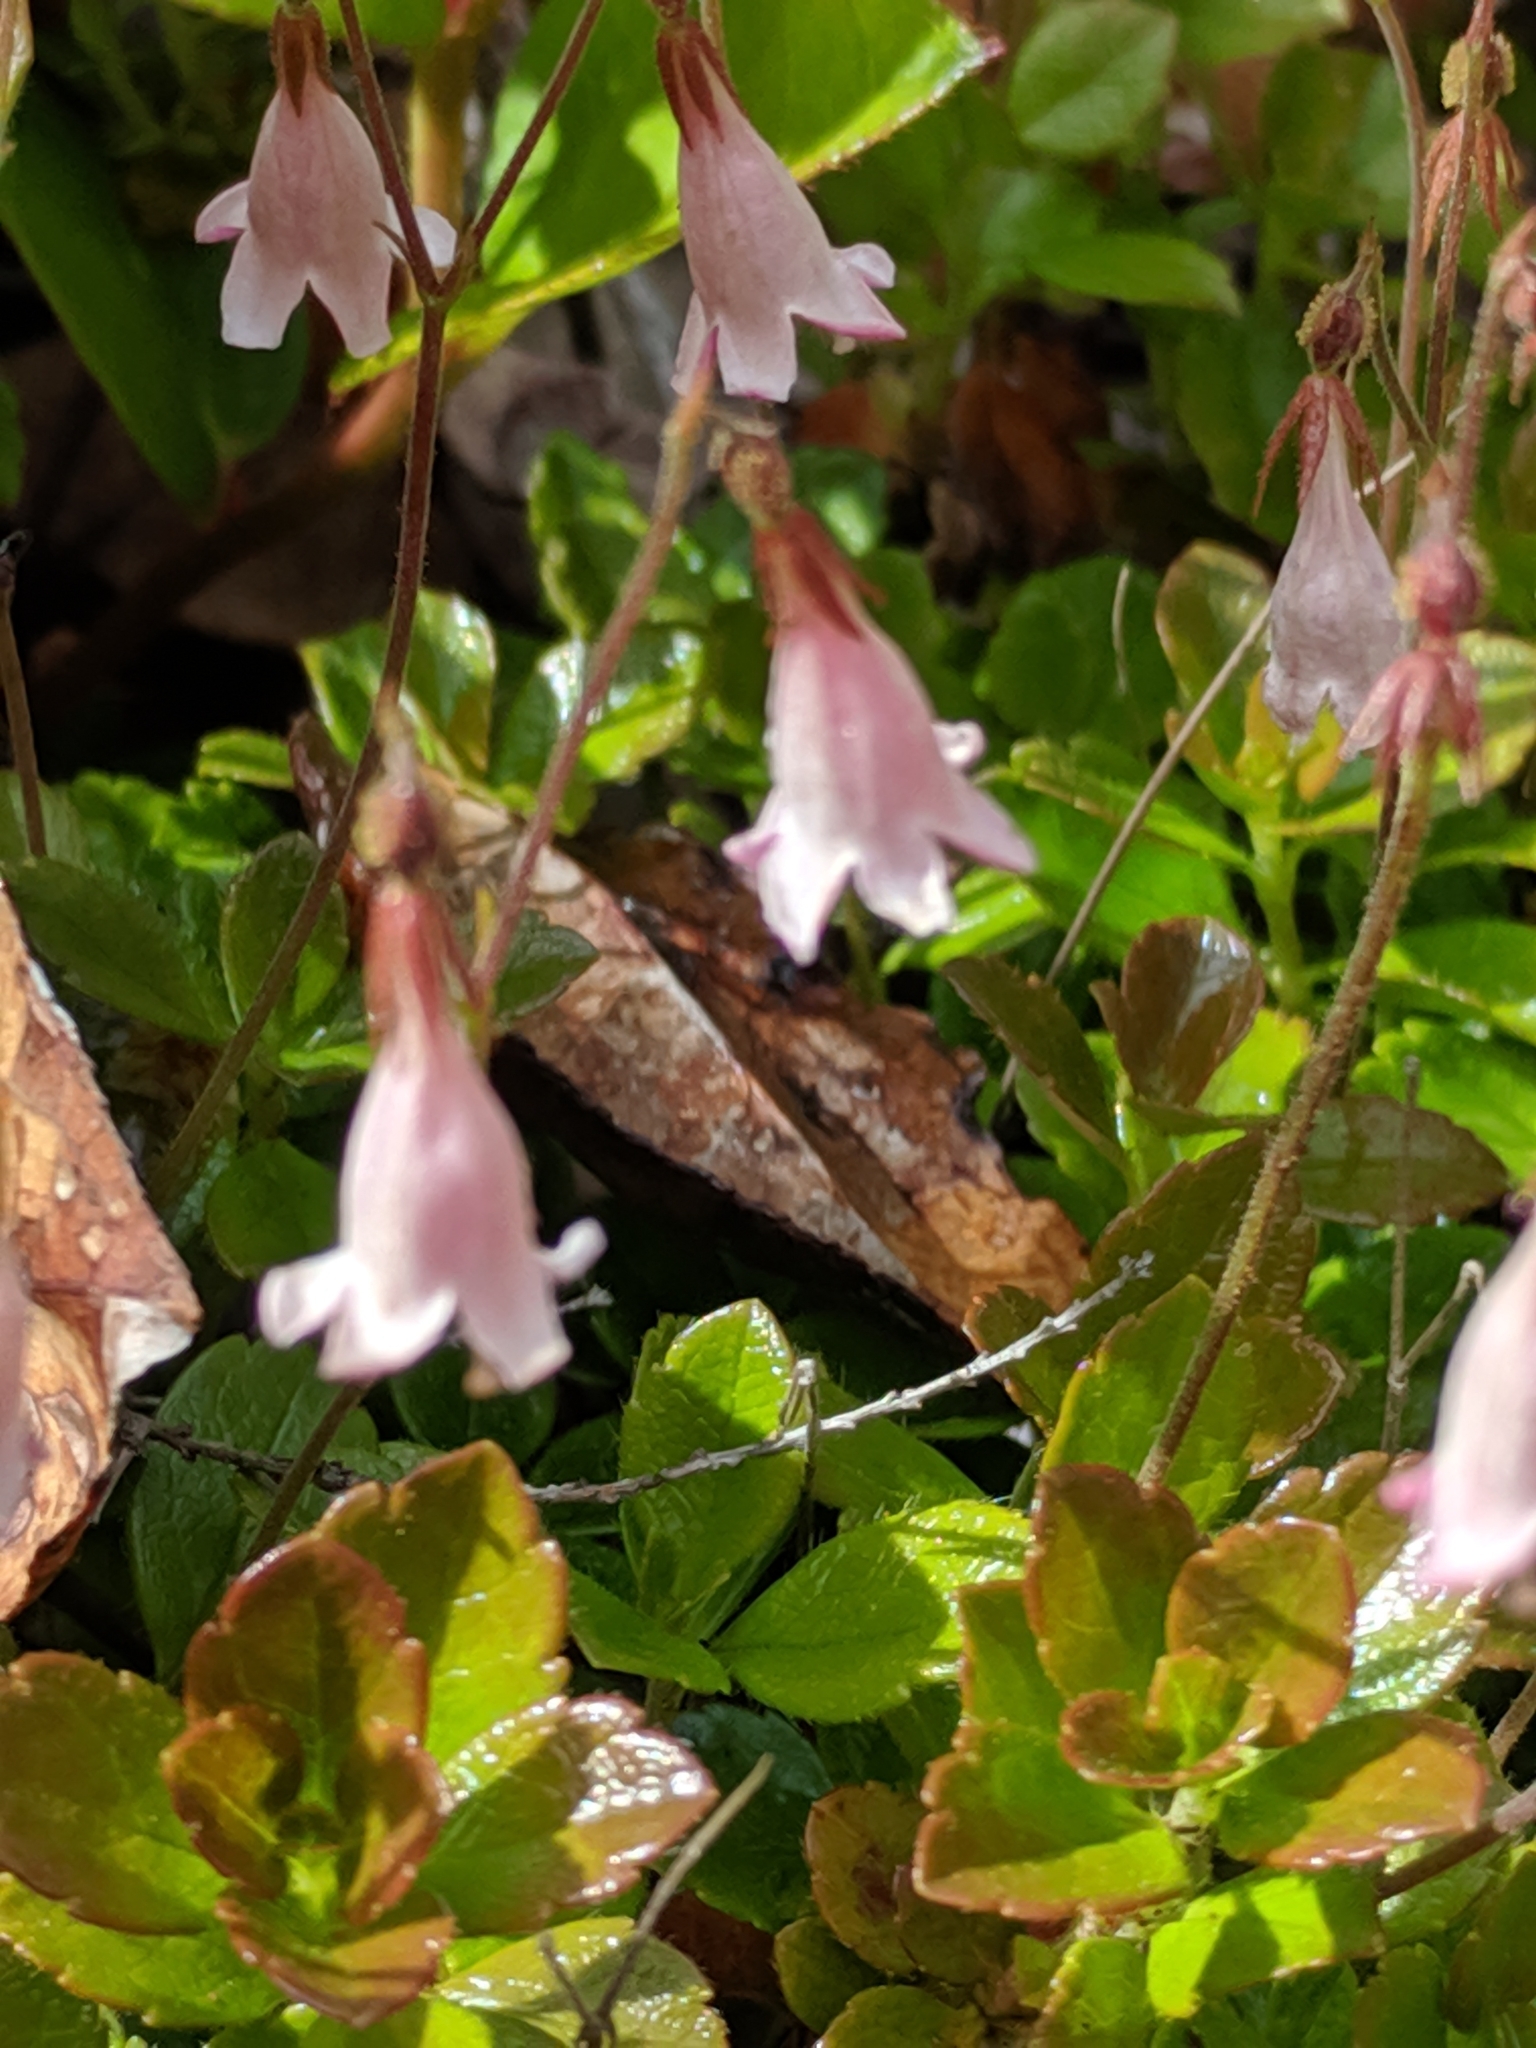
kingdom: Plantae
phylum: Tracheophyta
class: Magnoliopsida
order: Dipsacales
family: Caprifoliaceae
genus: Linnaea
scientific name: Linnaea borealis
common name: Twinflower
